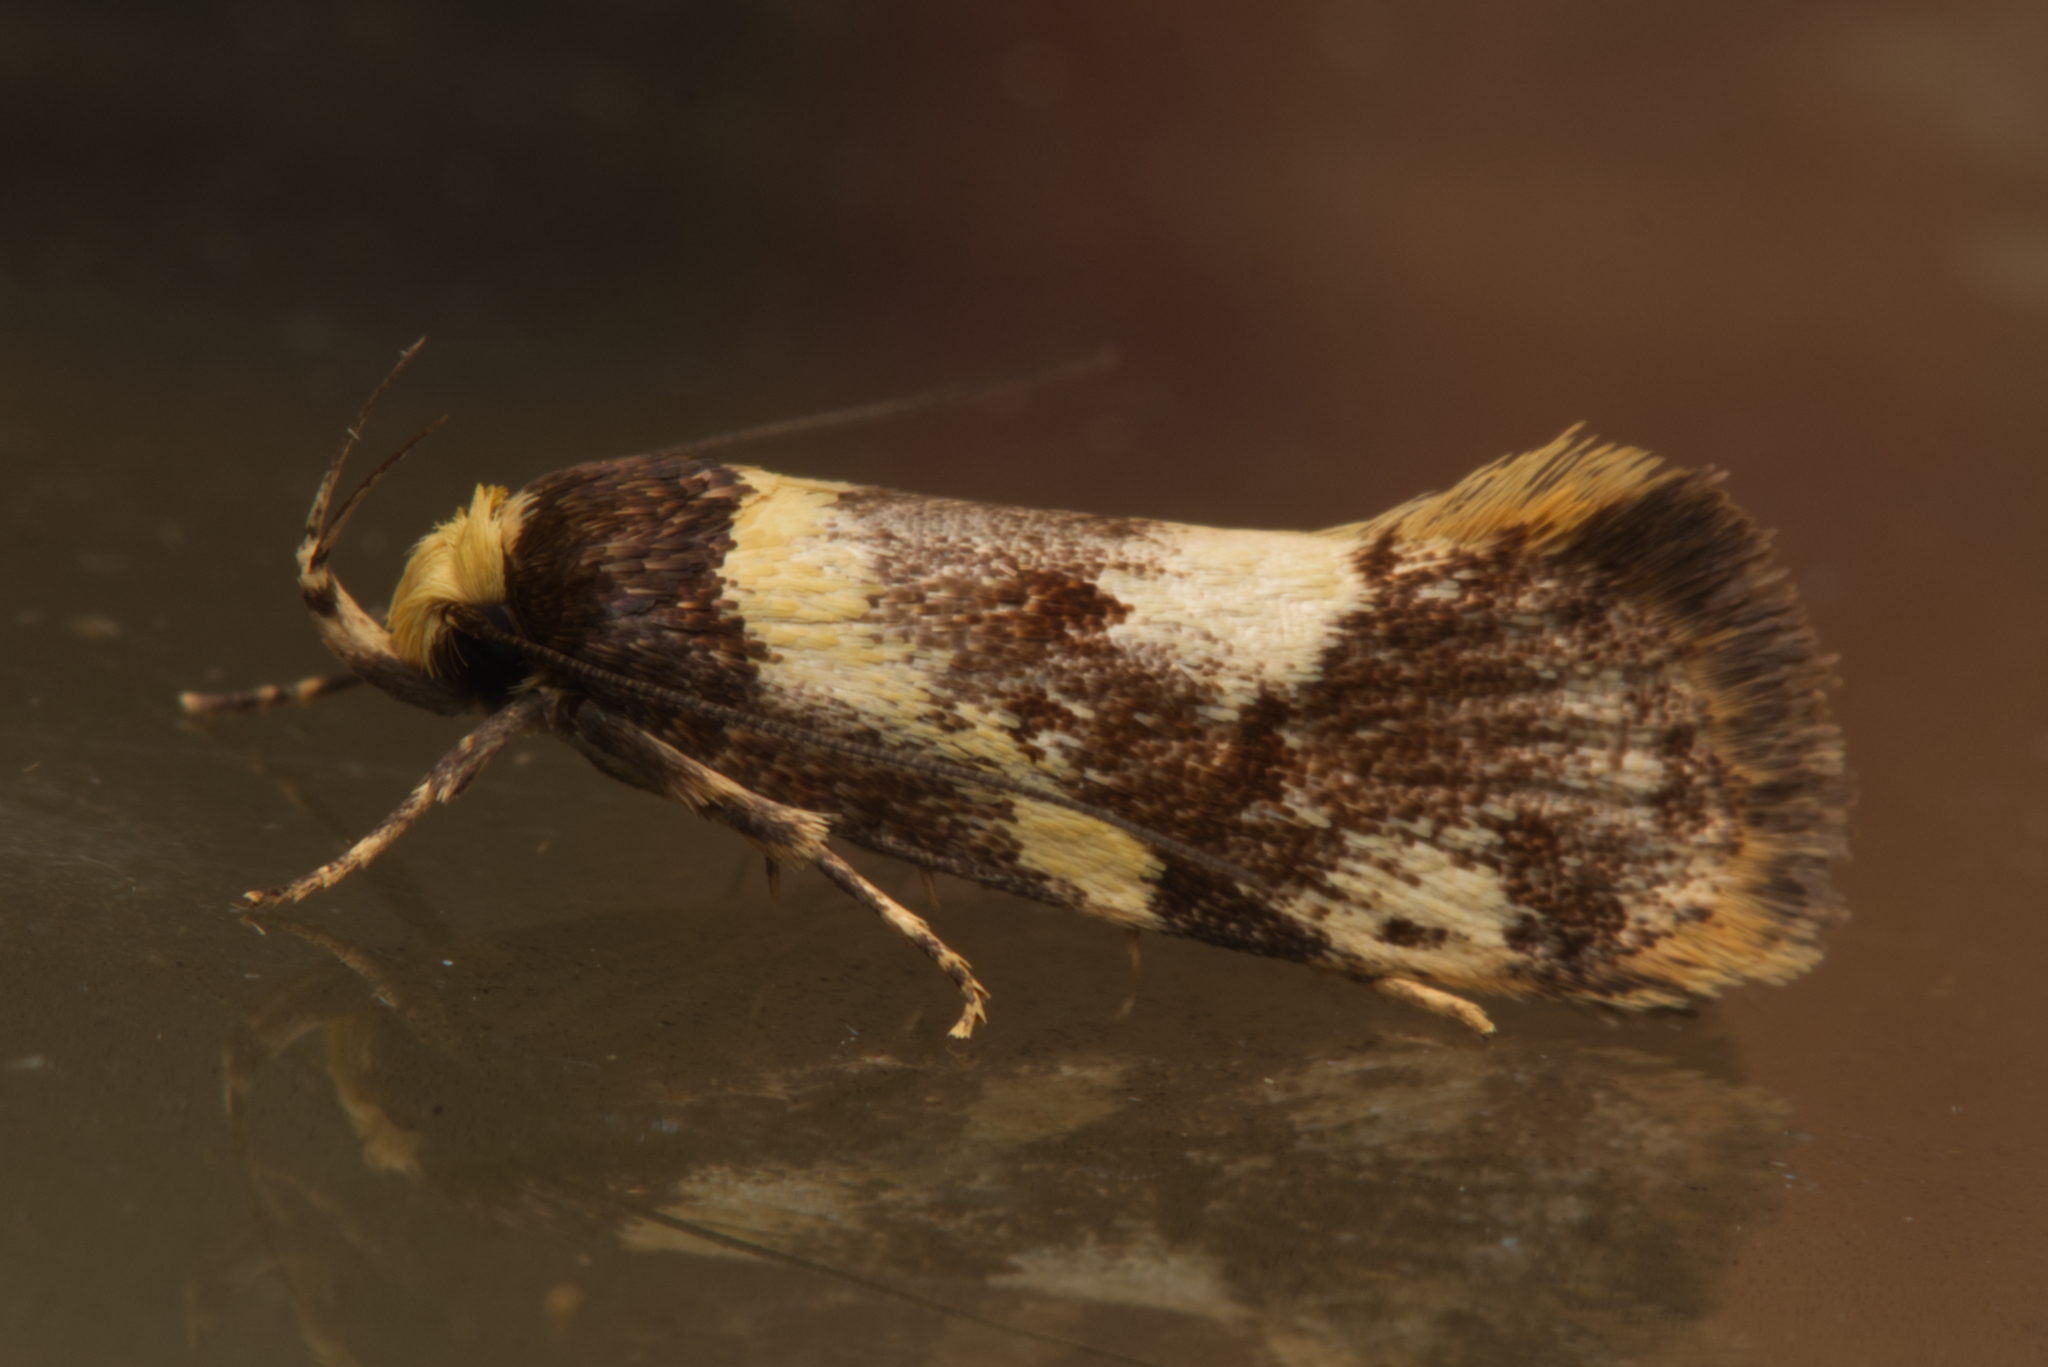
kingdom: Animalia
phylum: Arthropoda
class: Insecta
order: Lepidoptera
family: Oecophoridae
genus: Eulechria
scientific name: Eulechria marmorata
